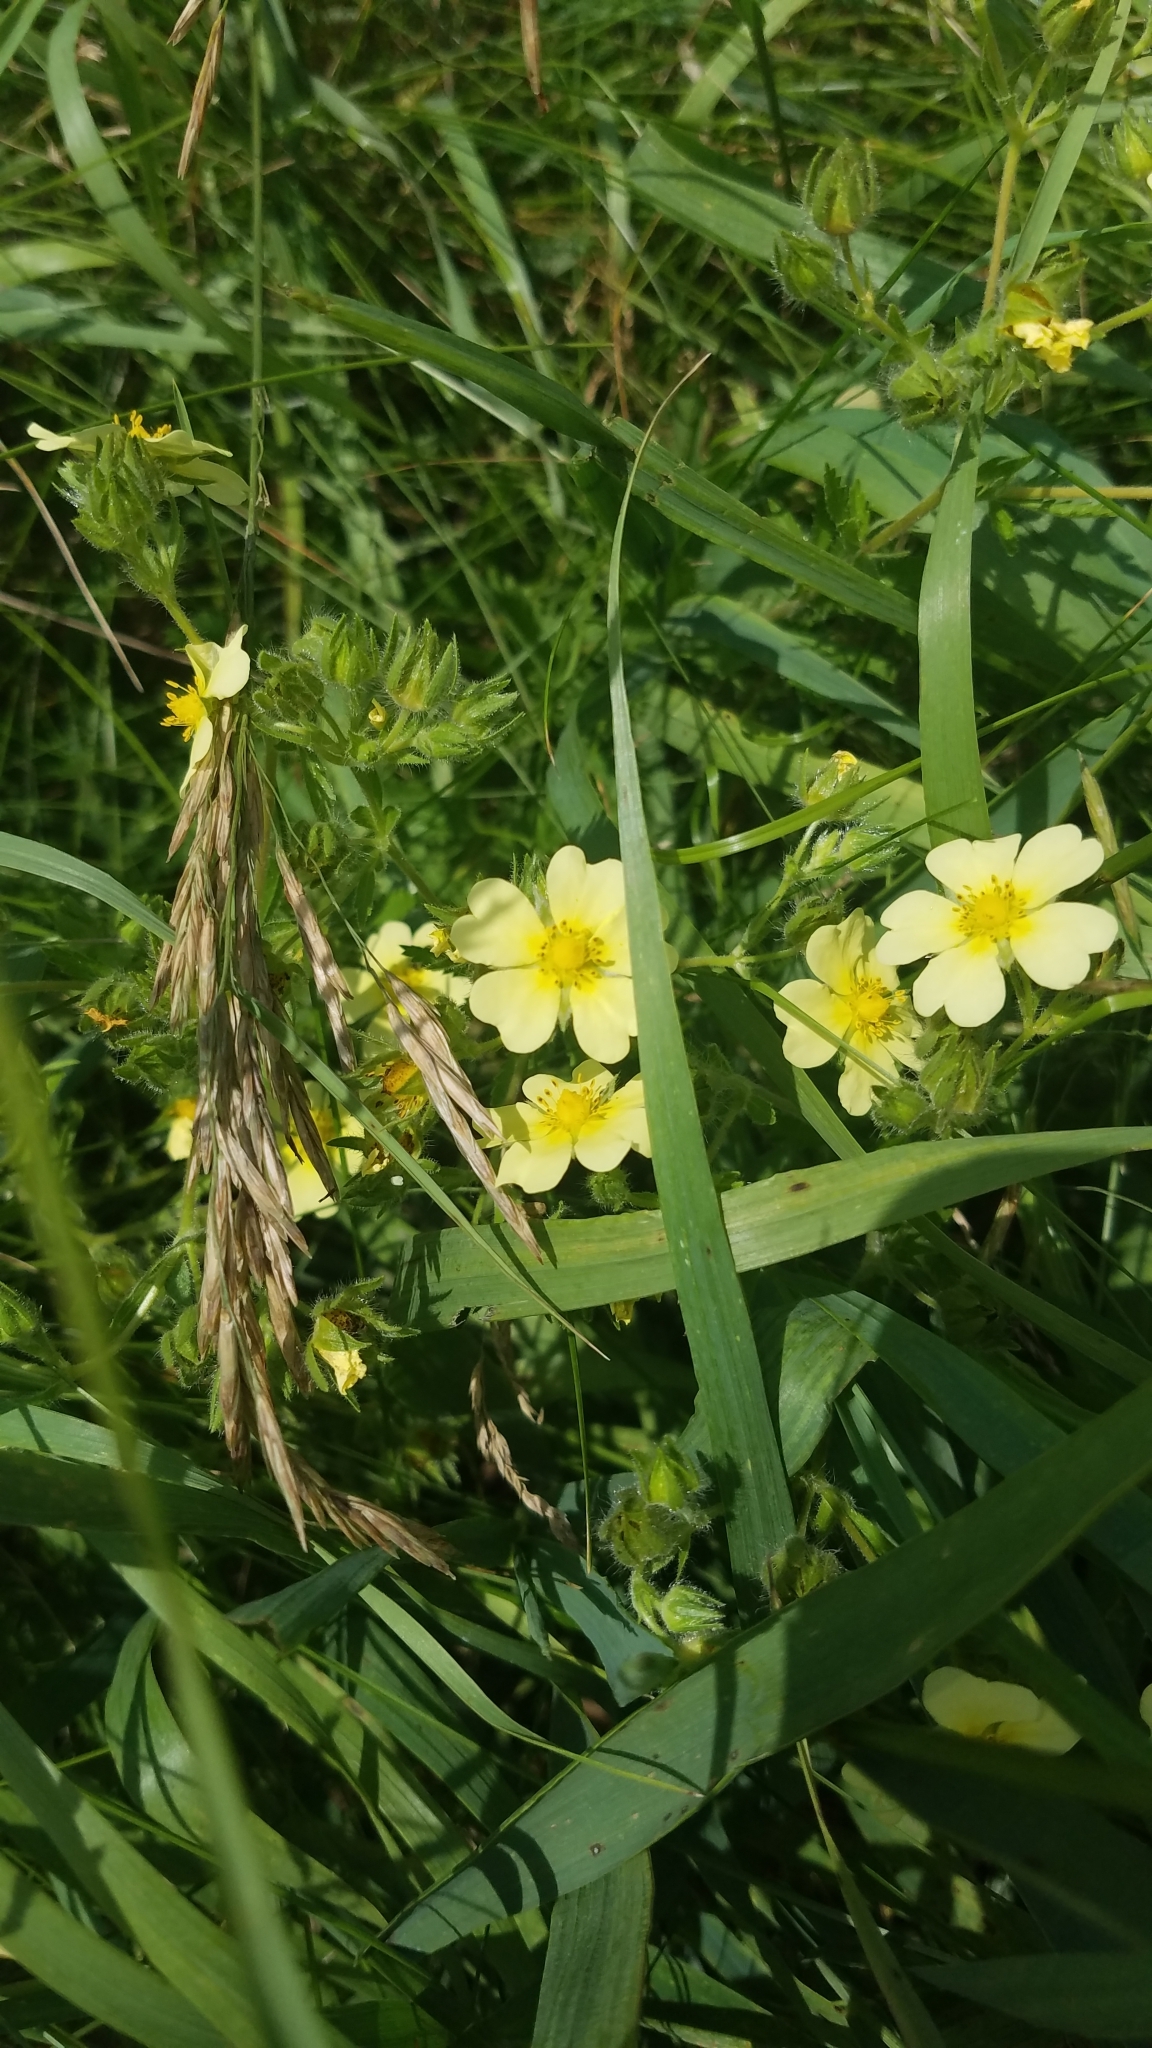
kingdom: Plantae
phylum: Tracheophyta
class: Magnoliopsida
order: Rosales
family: Rosaceae
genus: Potentilla
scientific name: Potentilla recta
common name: Sulphur cinquefoil
